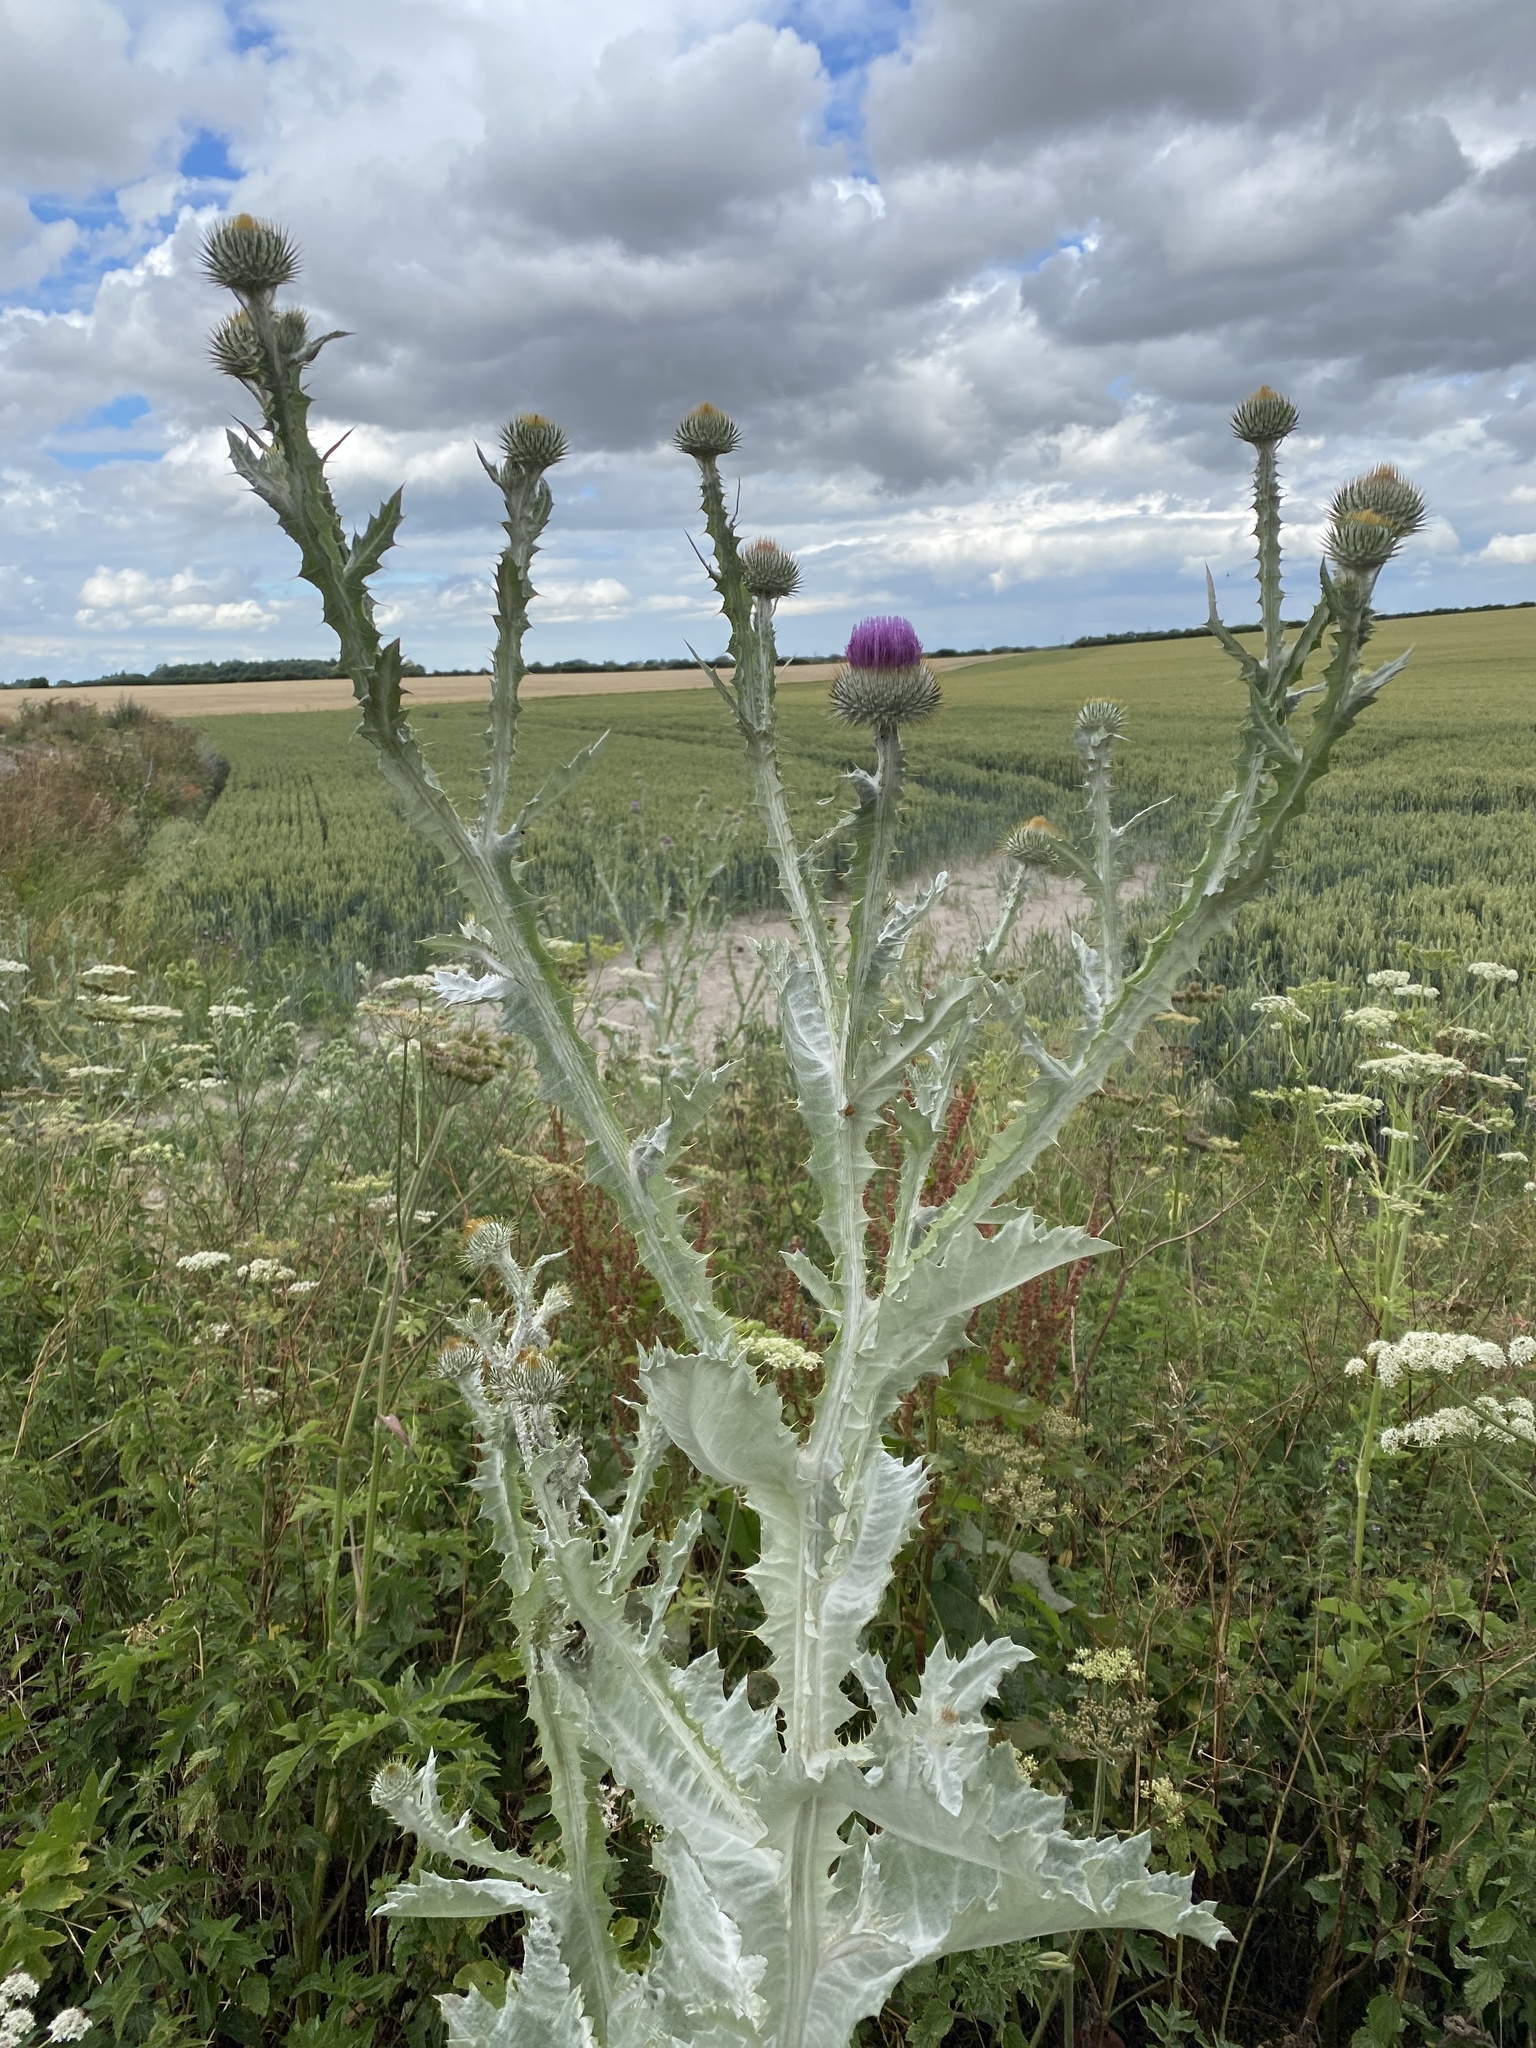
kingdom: Plantae
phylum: Tracheophyta
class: Magnoliopsida
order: Asterales
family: Asteraceae
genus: Onopordum
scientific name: Onopordum acanthium
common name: Scotch thistle
